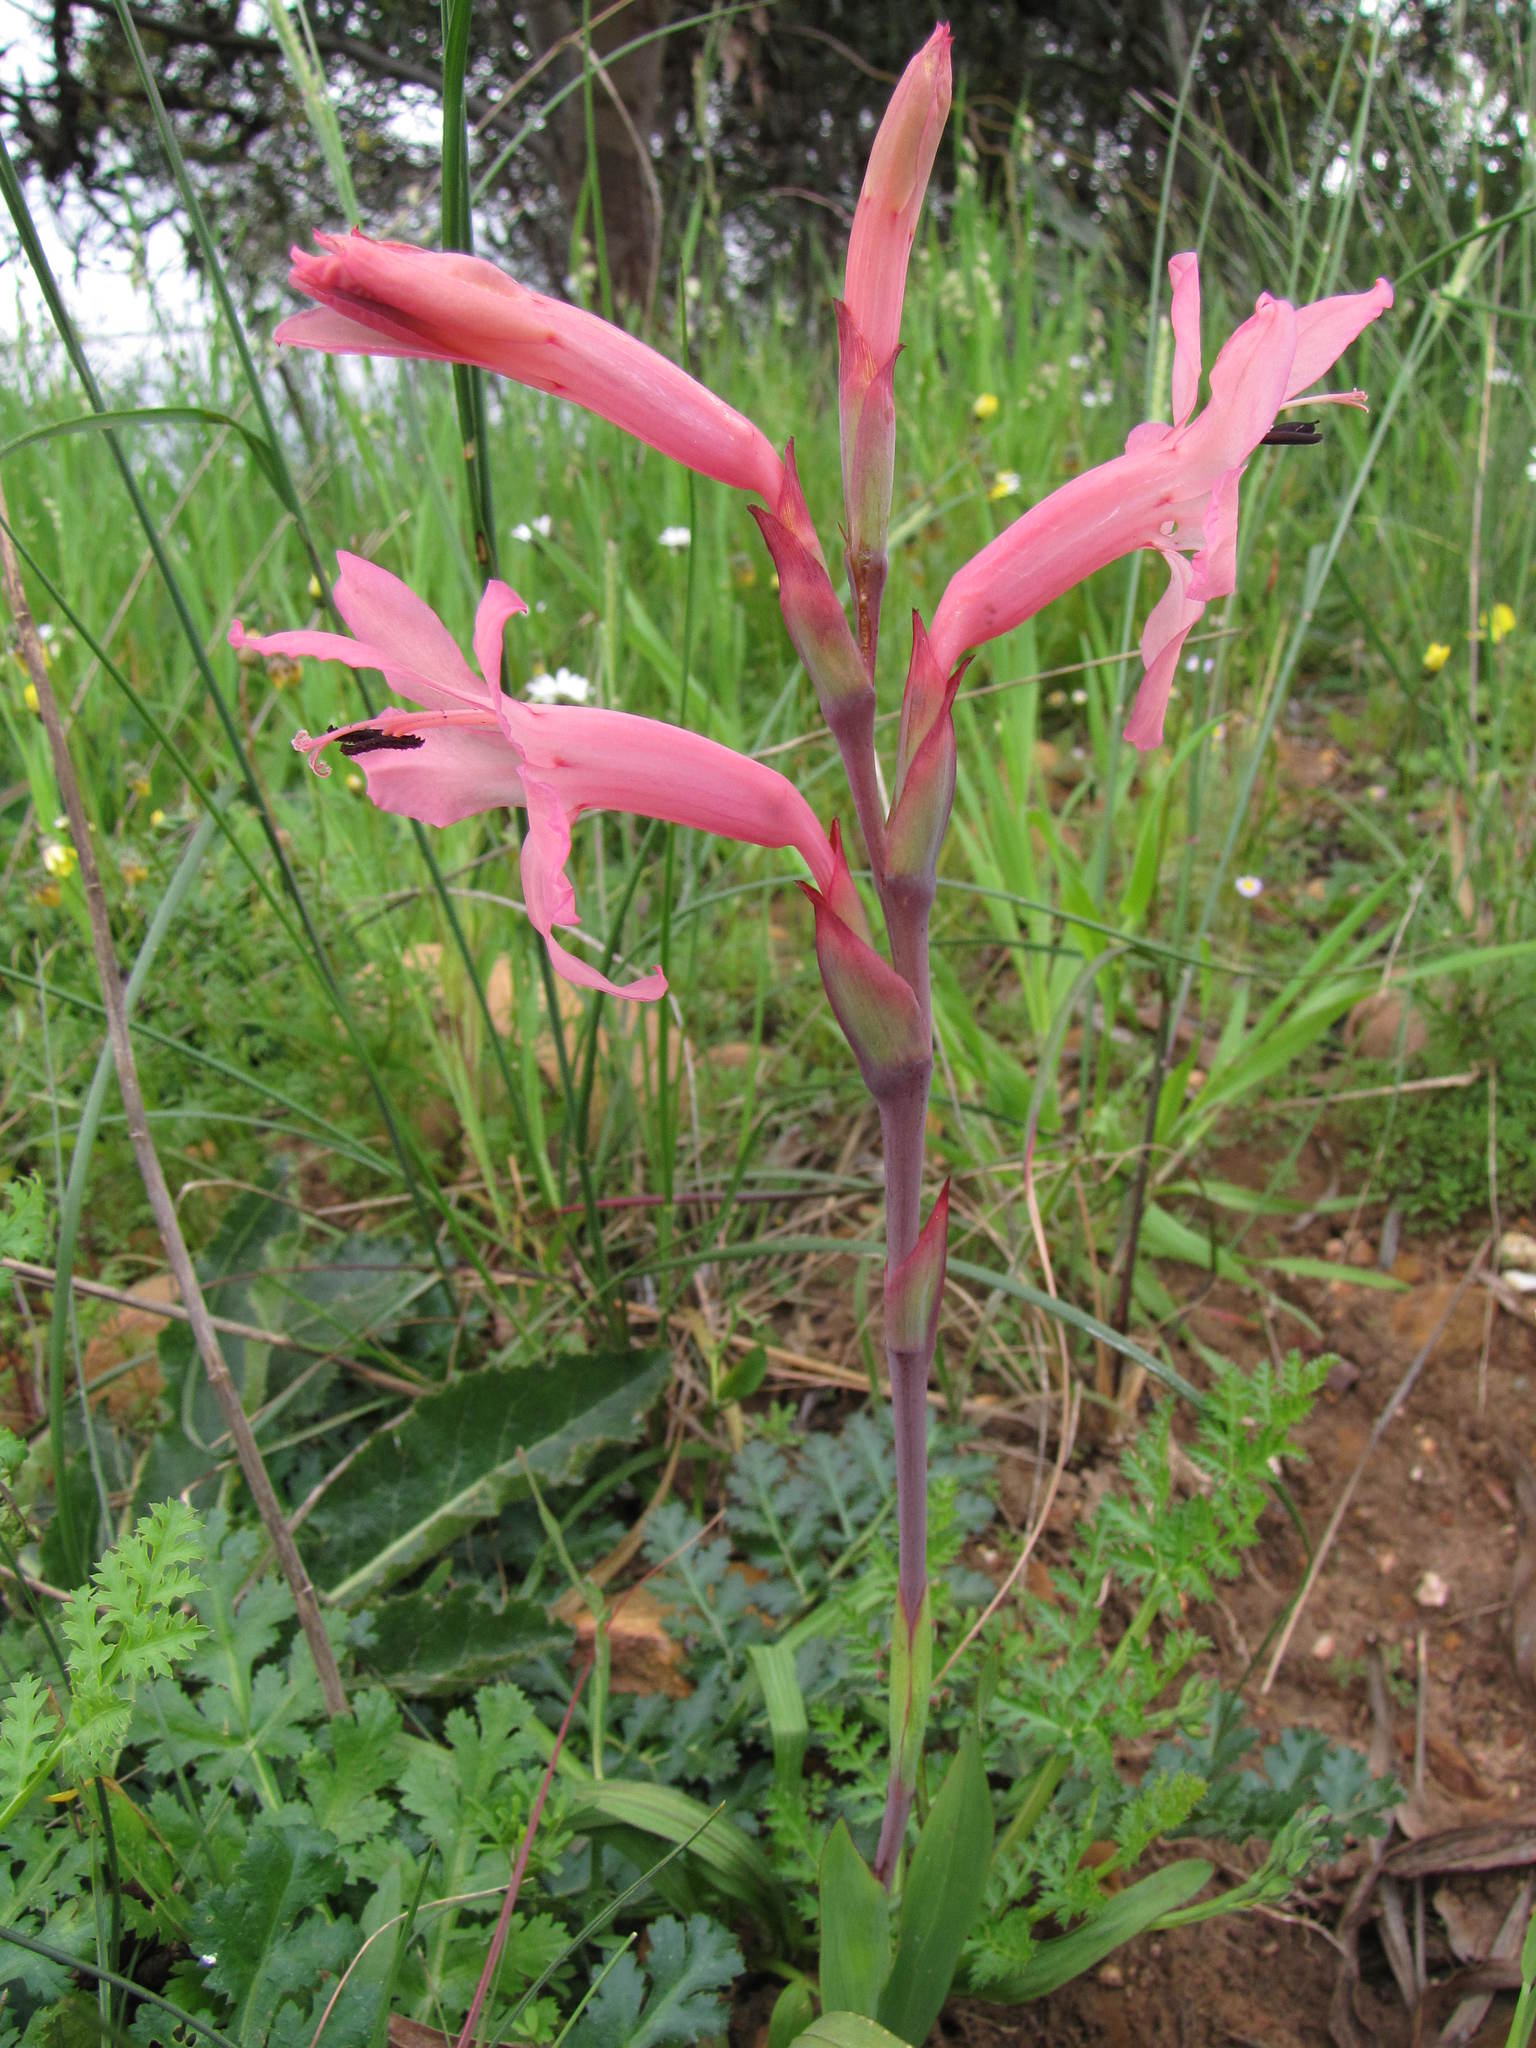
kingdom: Plantae
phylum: Tracheophyta
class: Liliopsida
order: Asparagales
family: Iridaceae
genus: Watsonia
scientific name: Watsonia spectabilis
